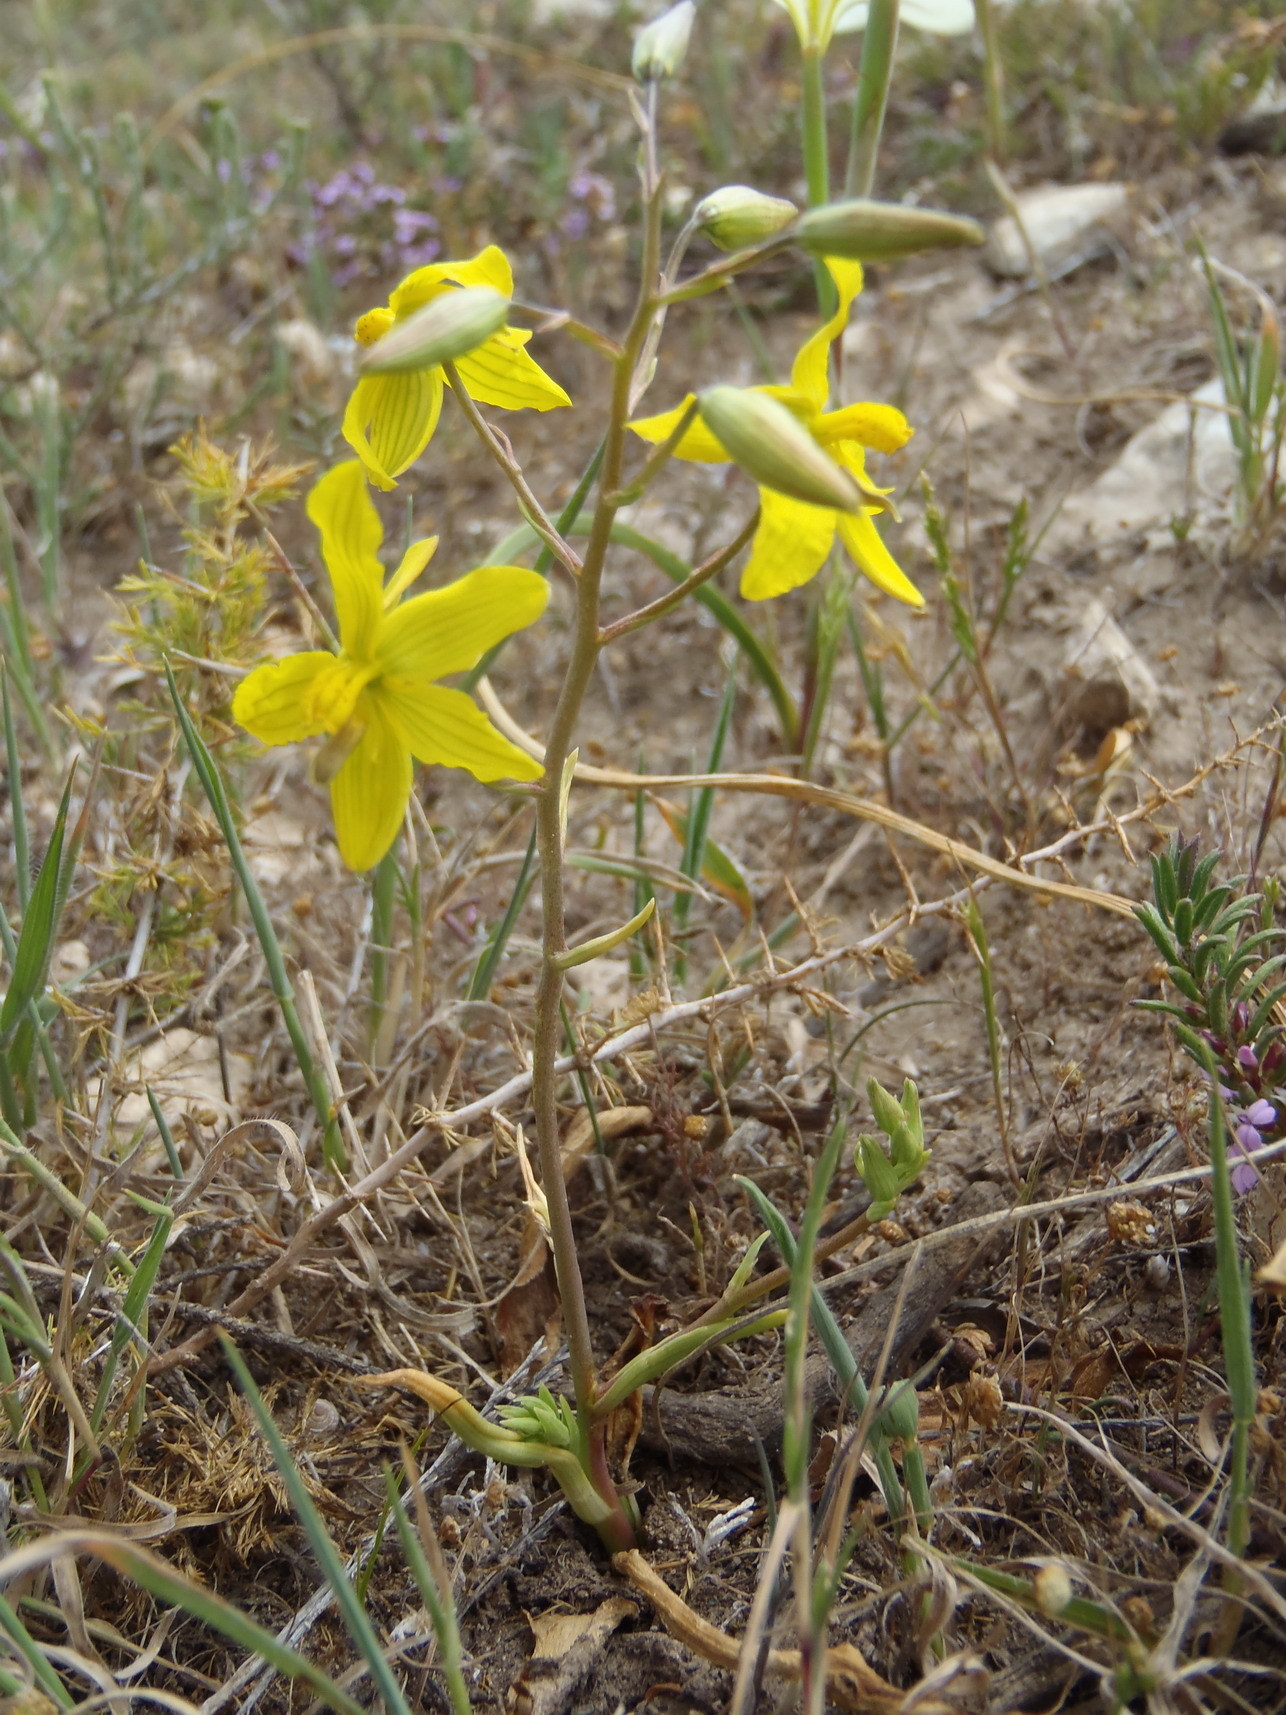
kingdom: Plantae
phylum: Tracheophyta
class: Liliopsida
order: Asparagales
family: Tecophilaeaceae
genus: Cyanella
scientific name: Cyanella lutea
